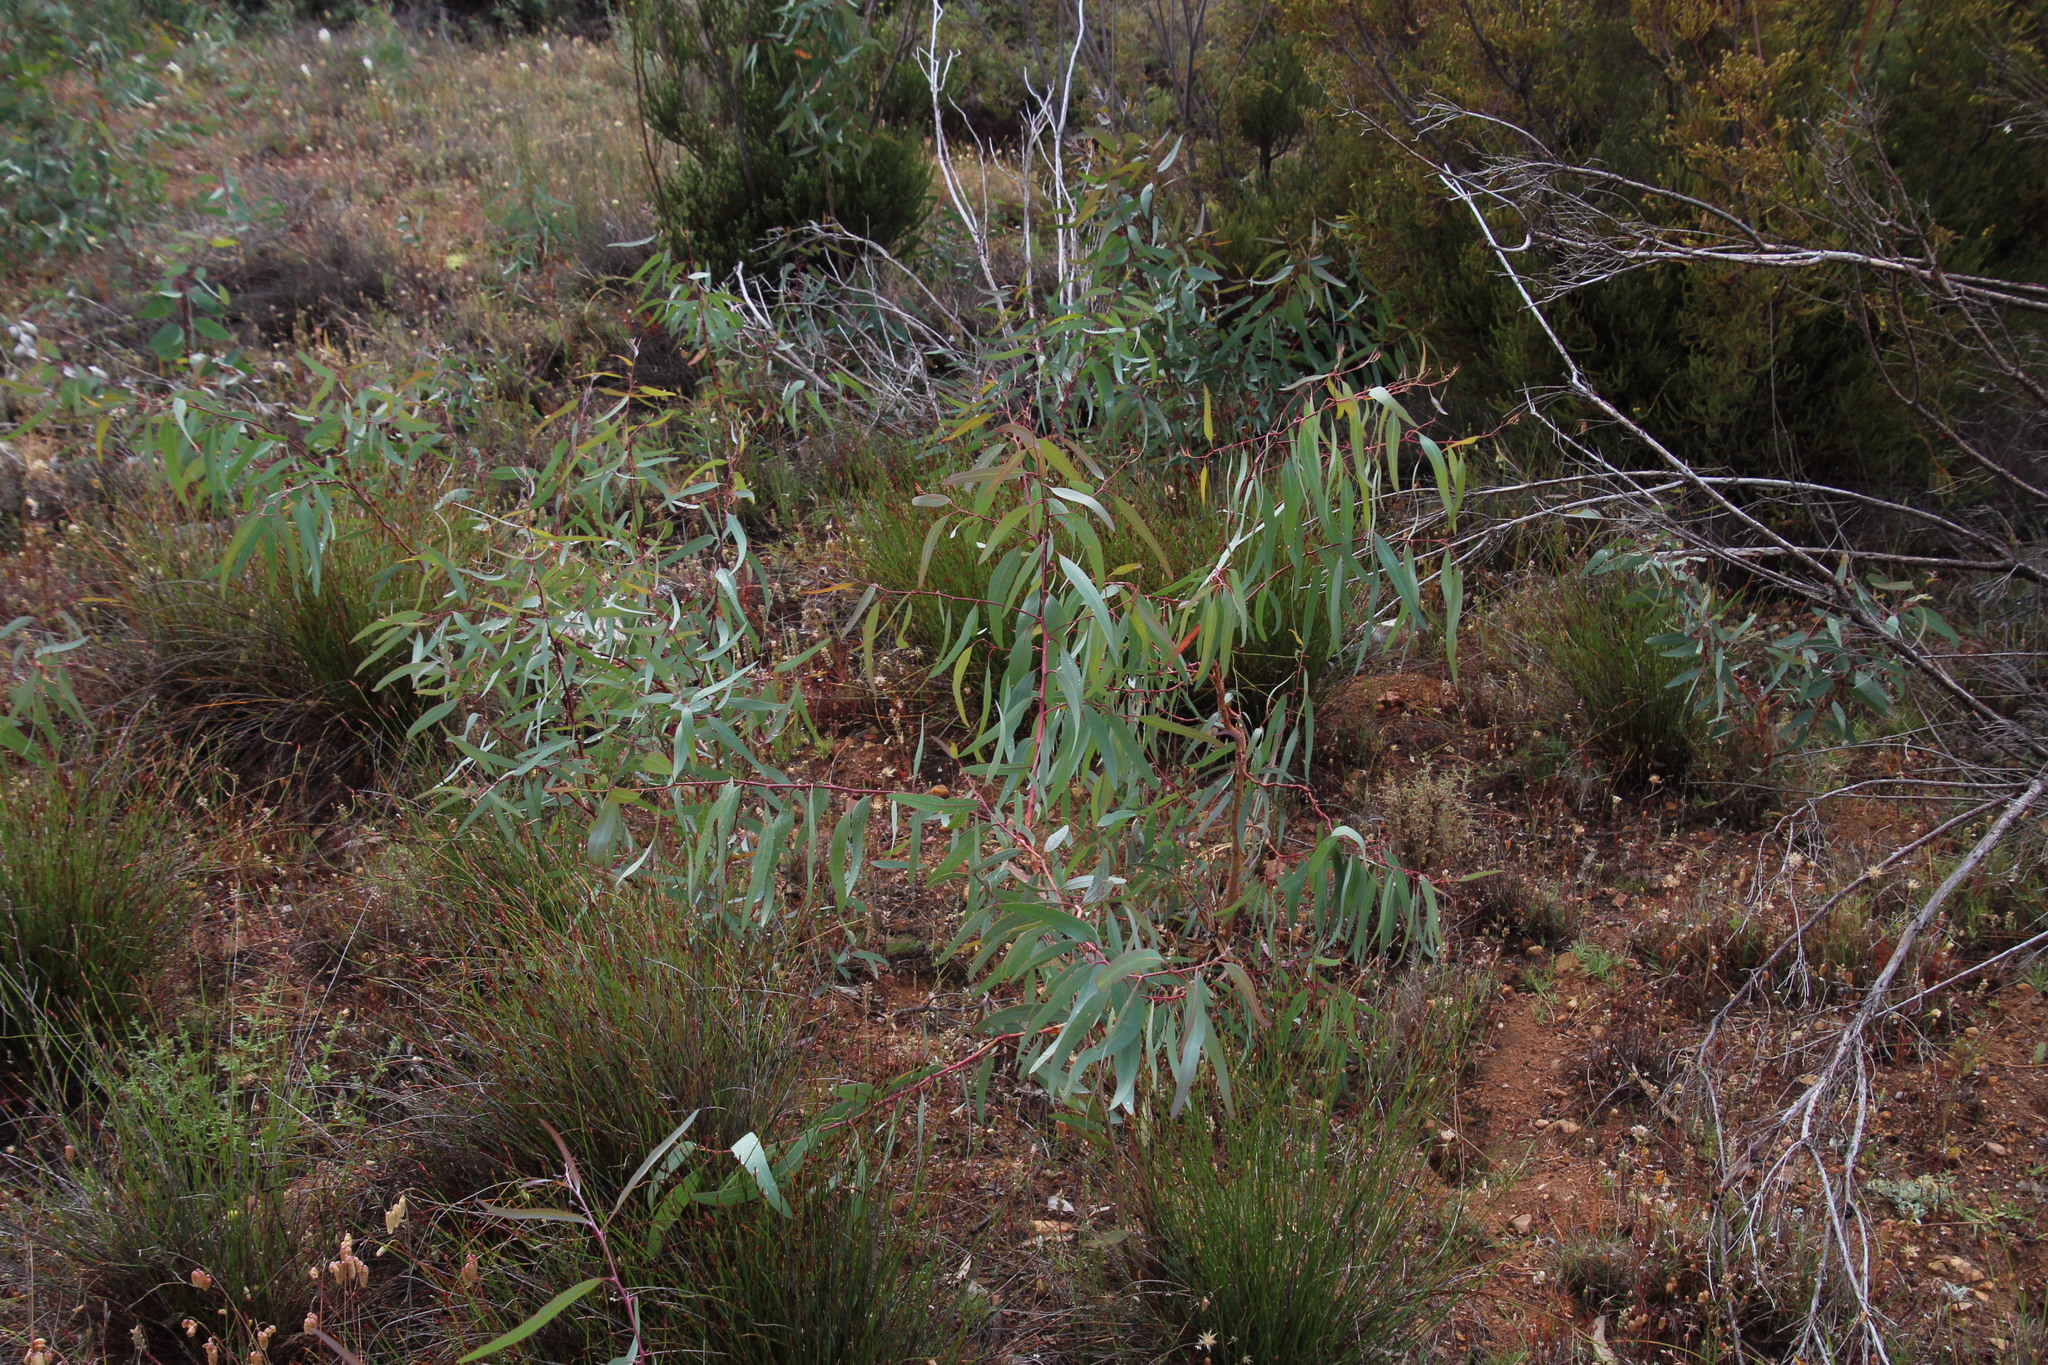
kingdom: Plantae
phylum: Tracheophyta
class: Magnoliopsida
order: Myrtales
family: Myrtaceae
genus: Eucalyptus
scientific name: Eucalyptus camaldulensis
